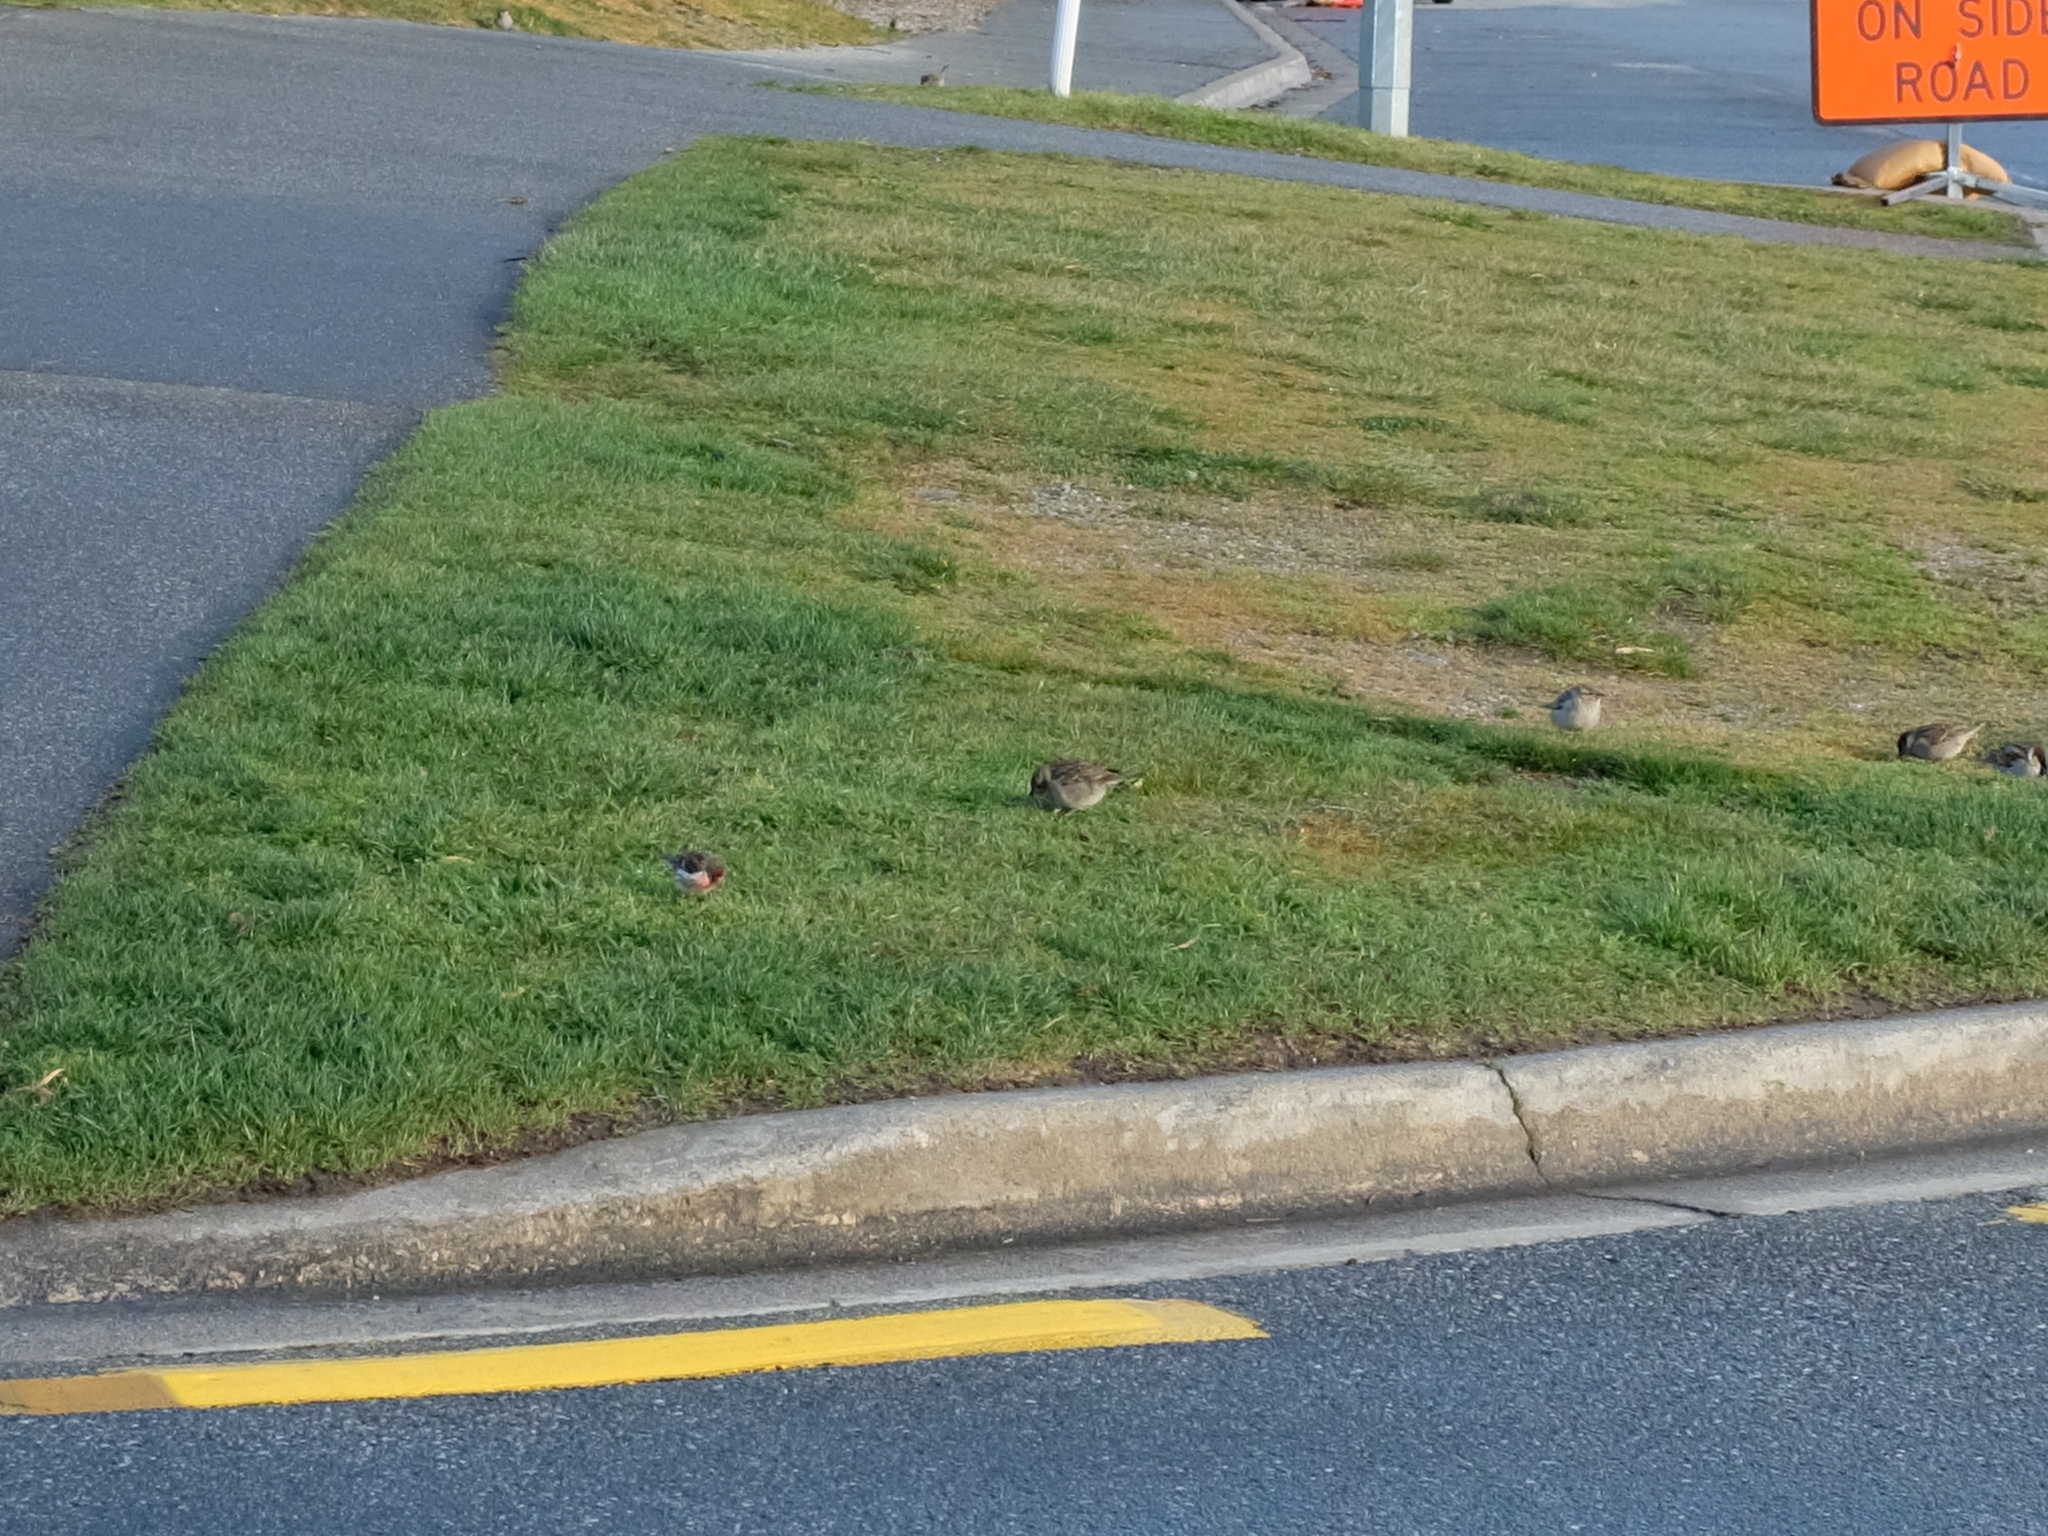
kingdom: Animalia
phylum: Chordata
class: Aves
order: Passeriformes
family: Fringillidae
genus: Acanthis
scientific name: Acanthis flammea
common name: Common redpoll
